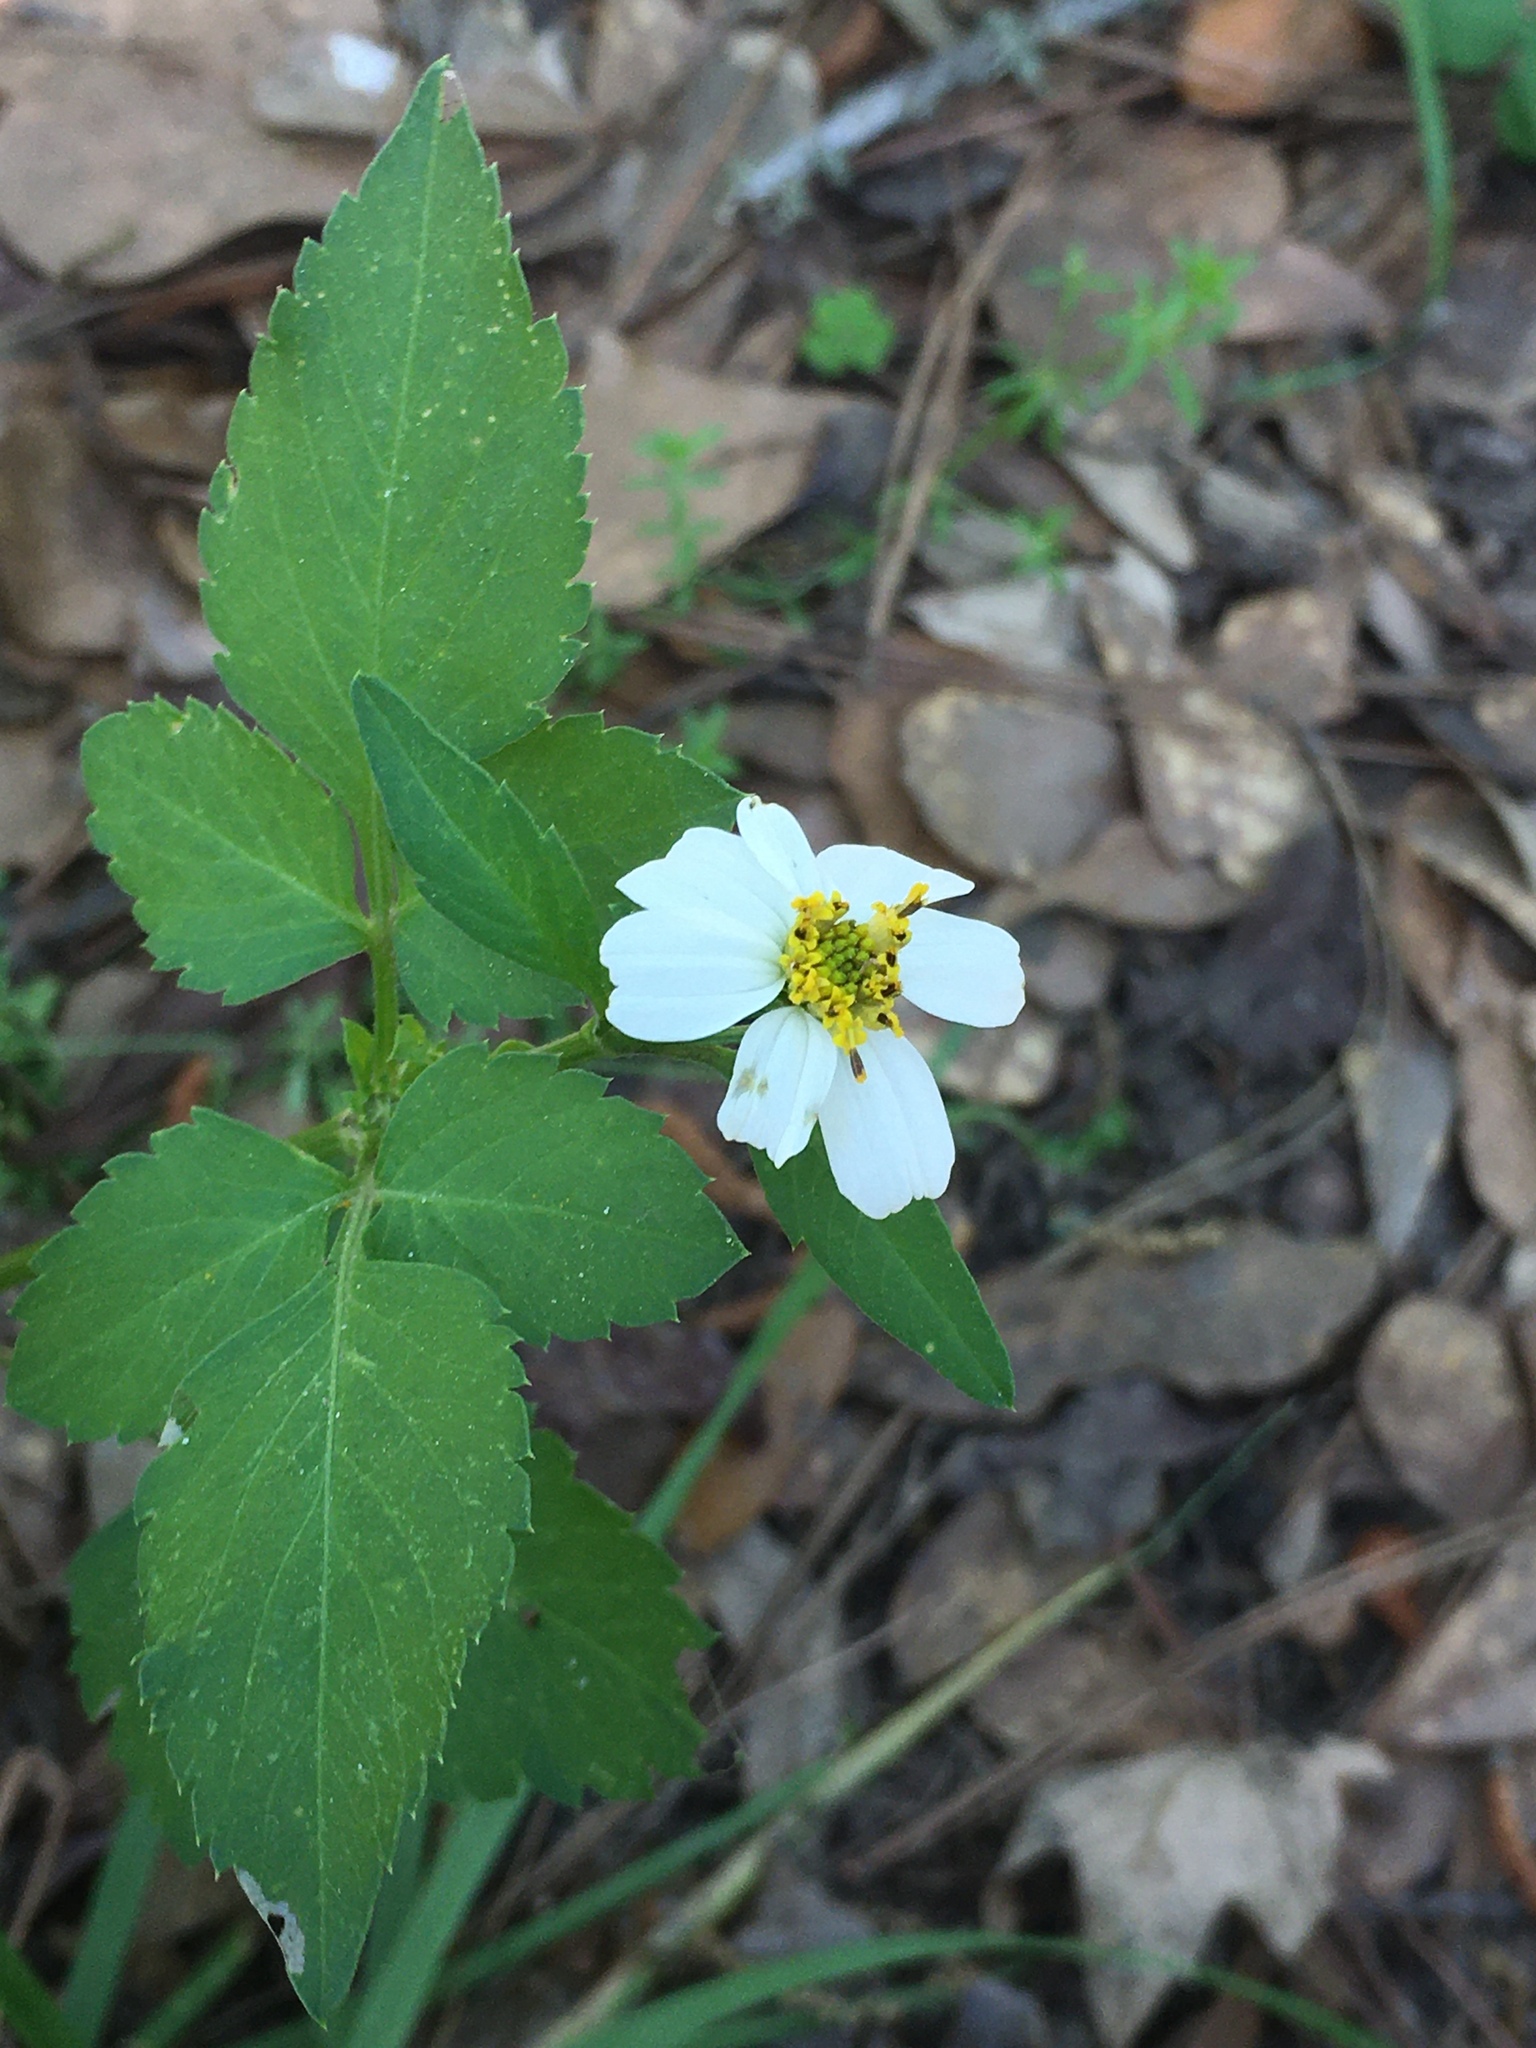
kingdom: Plantae
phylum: Tracheophyta
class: Magnoliopsida
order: Asterales
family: Asteraceae
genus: Bidens
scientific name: Bidens alba
